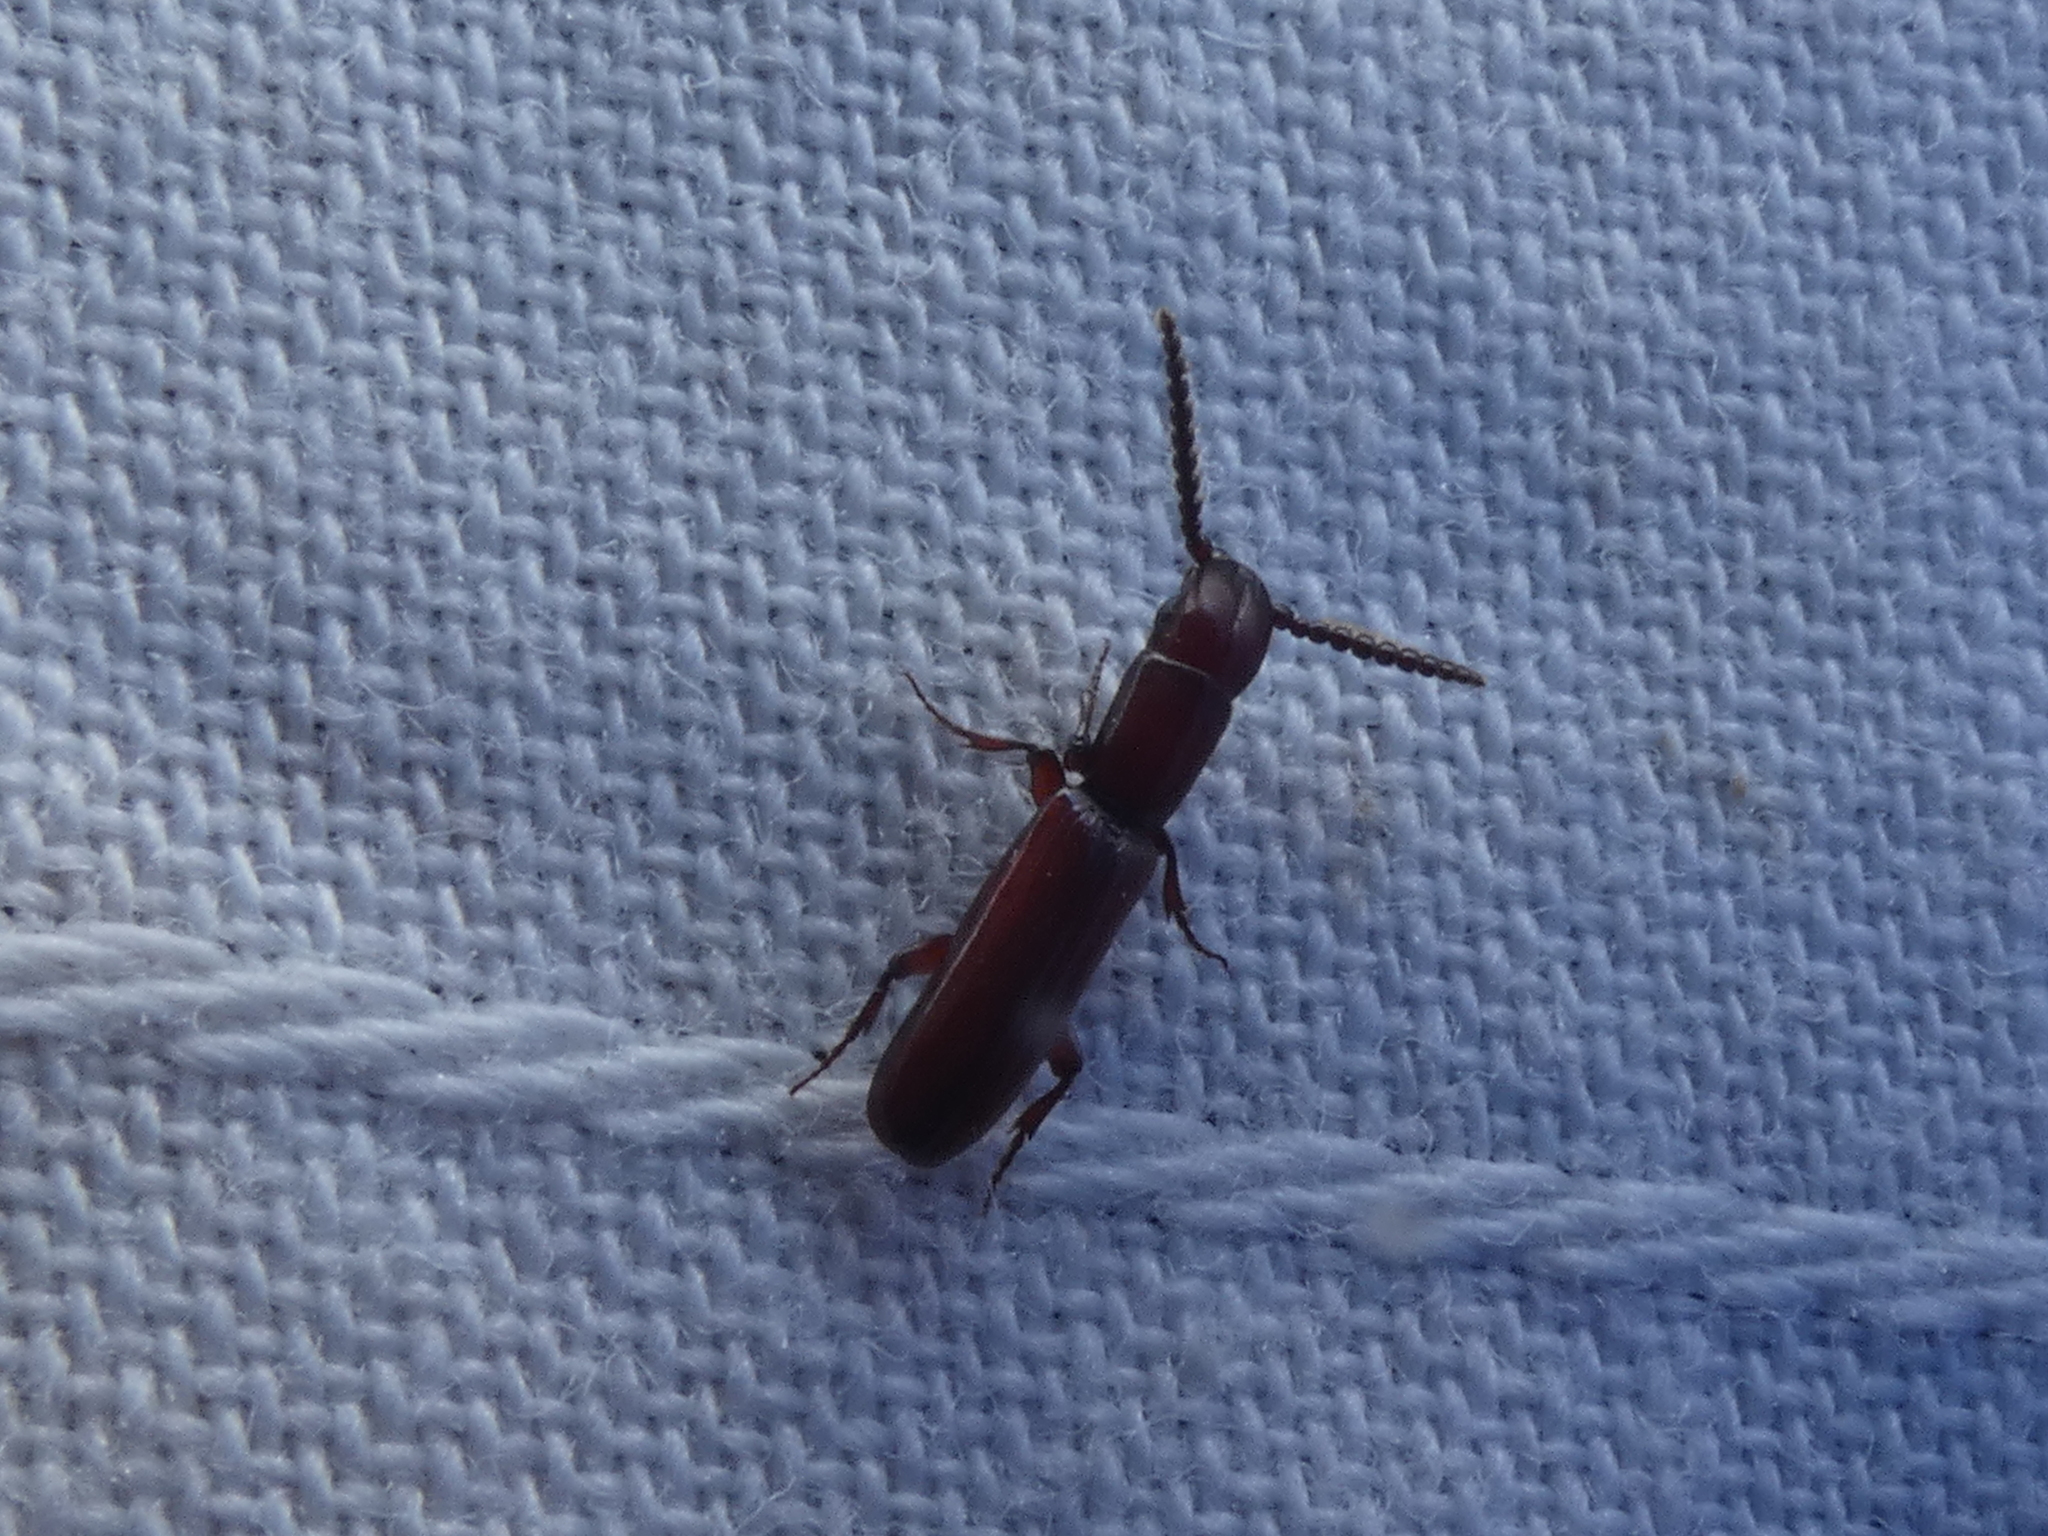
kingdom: Animalia
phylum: Arthropoda
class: Insecta
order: Coleoptera
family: Passandridae
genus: Taphroscelidia
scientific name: Taphroscelidia linearis
